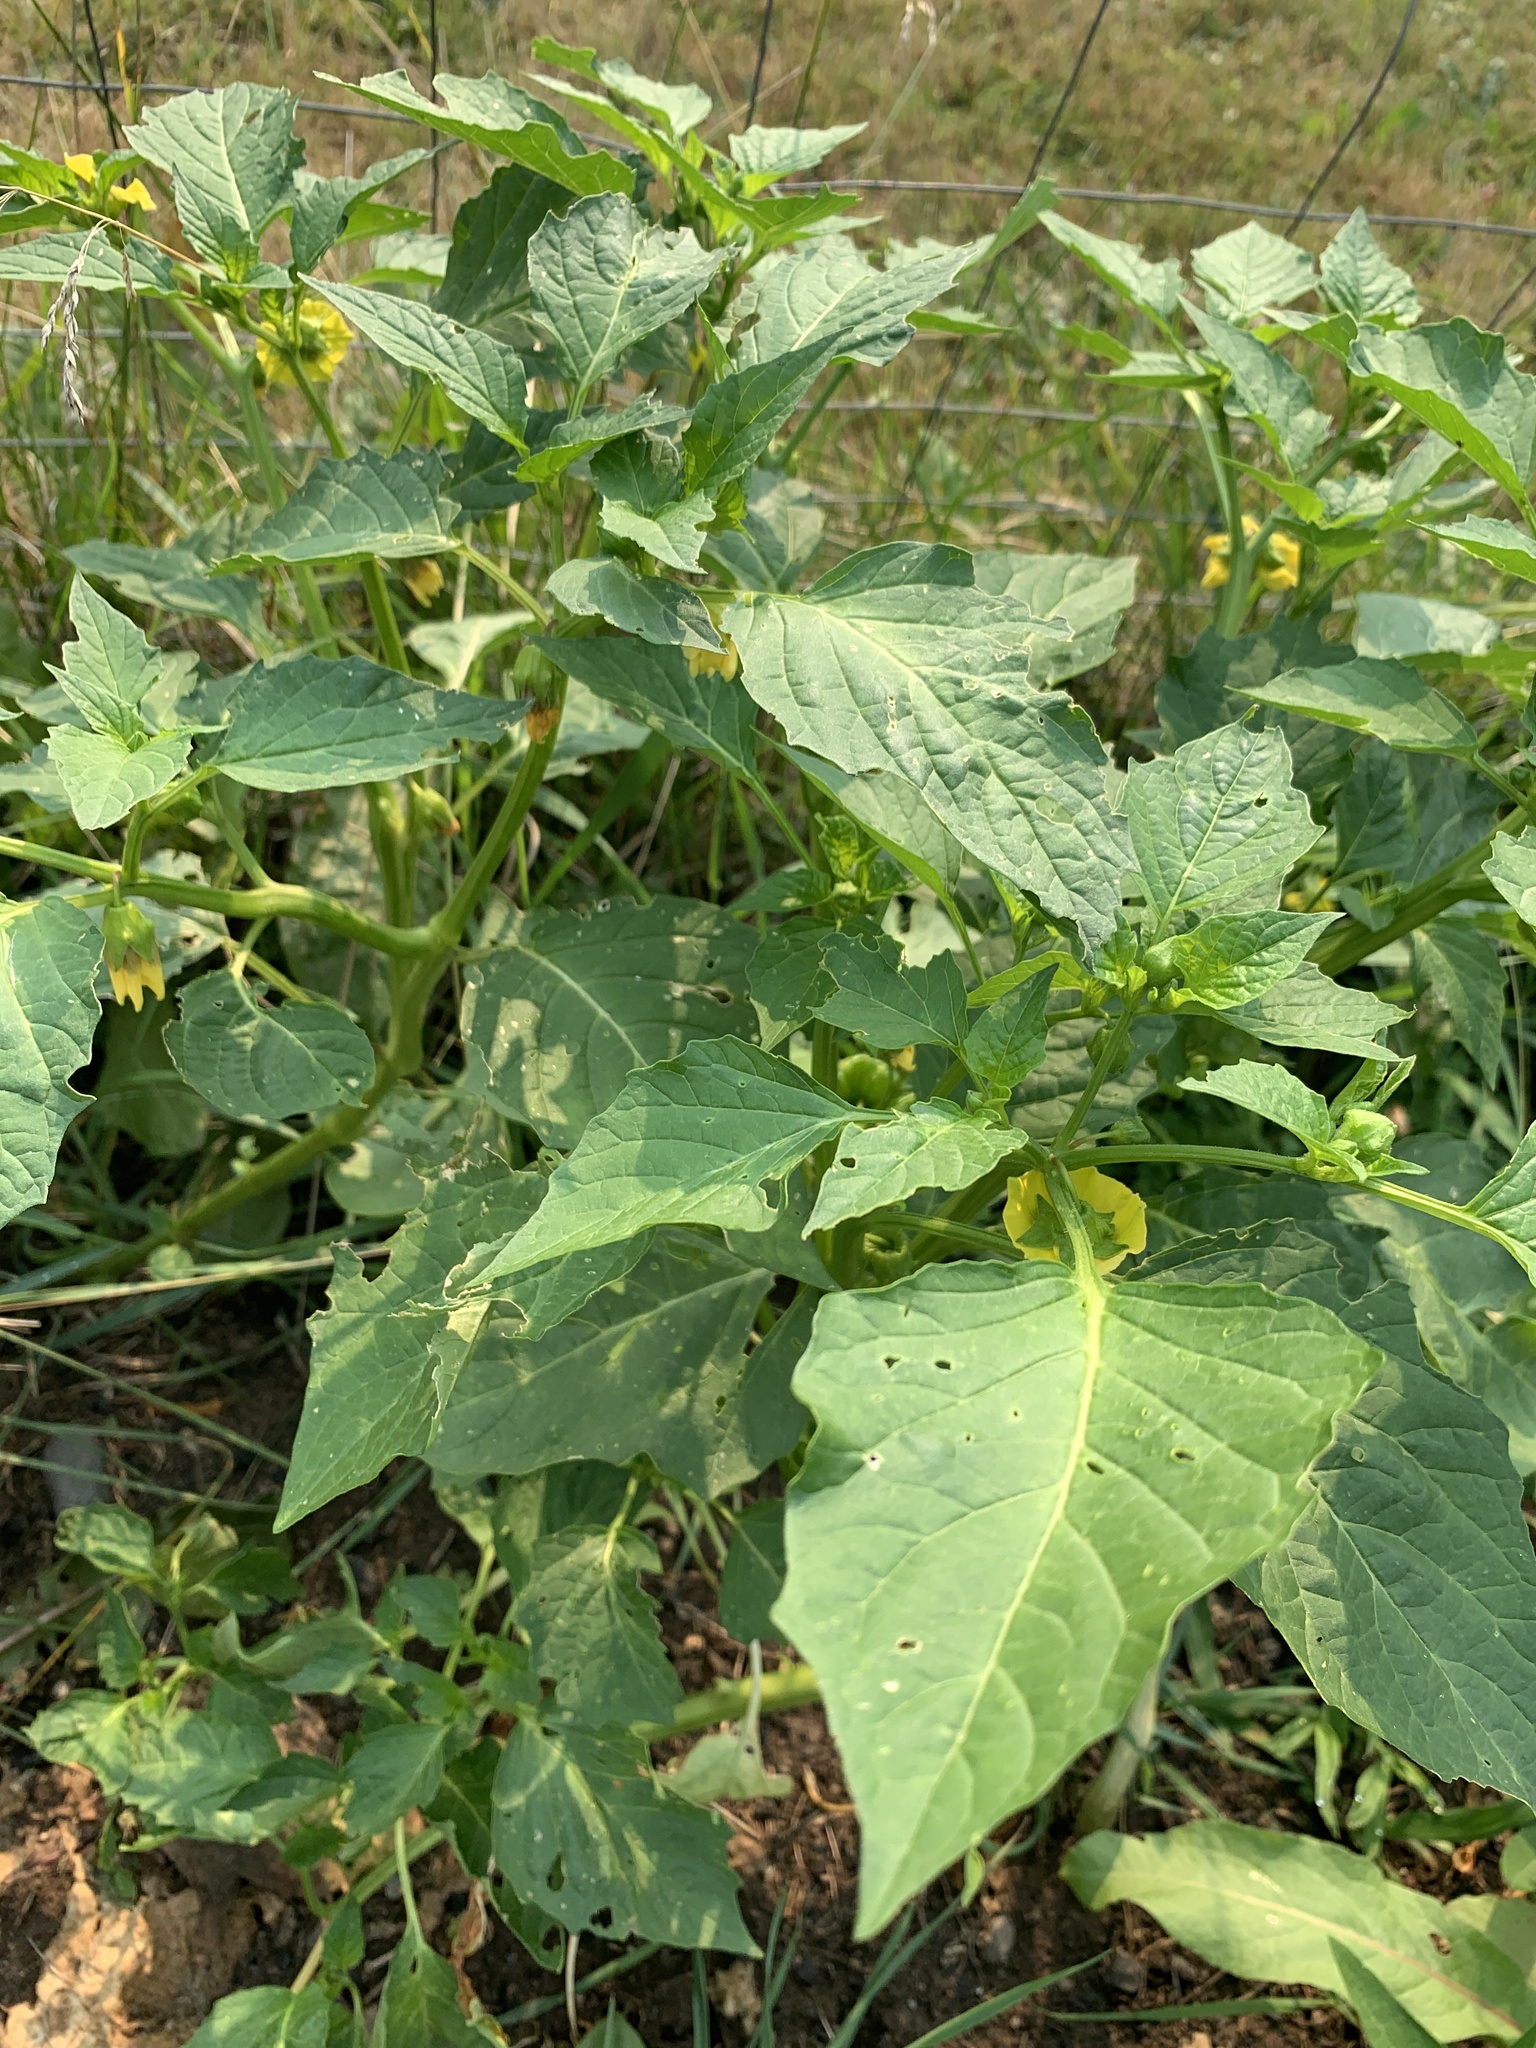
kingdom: Plantae
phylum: Tracheophyta
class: Magnoliopsida
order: Solanales
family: Solanaceae
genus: Physalis
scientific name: Physalis philadelphica
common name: Husk-tomato
